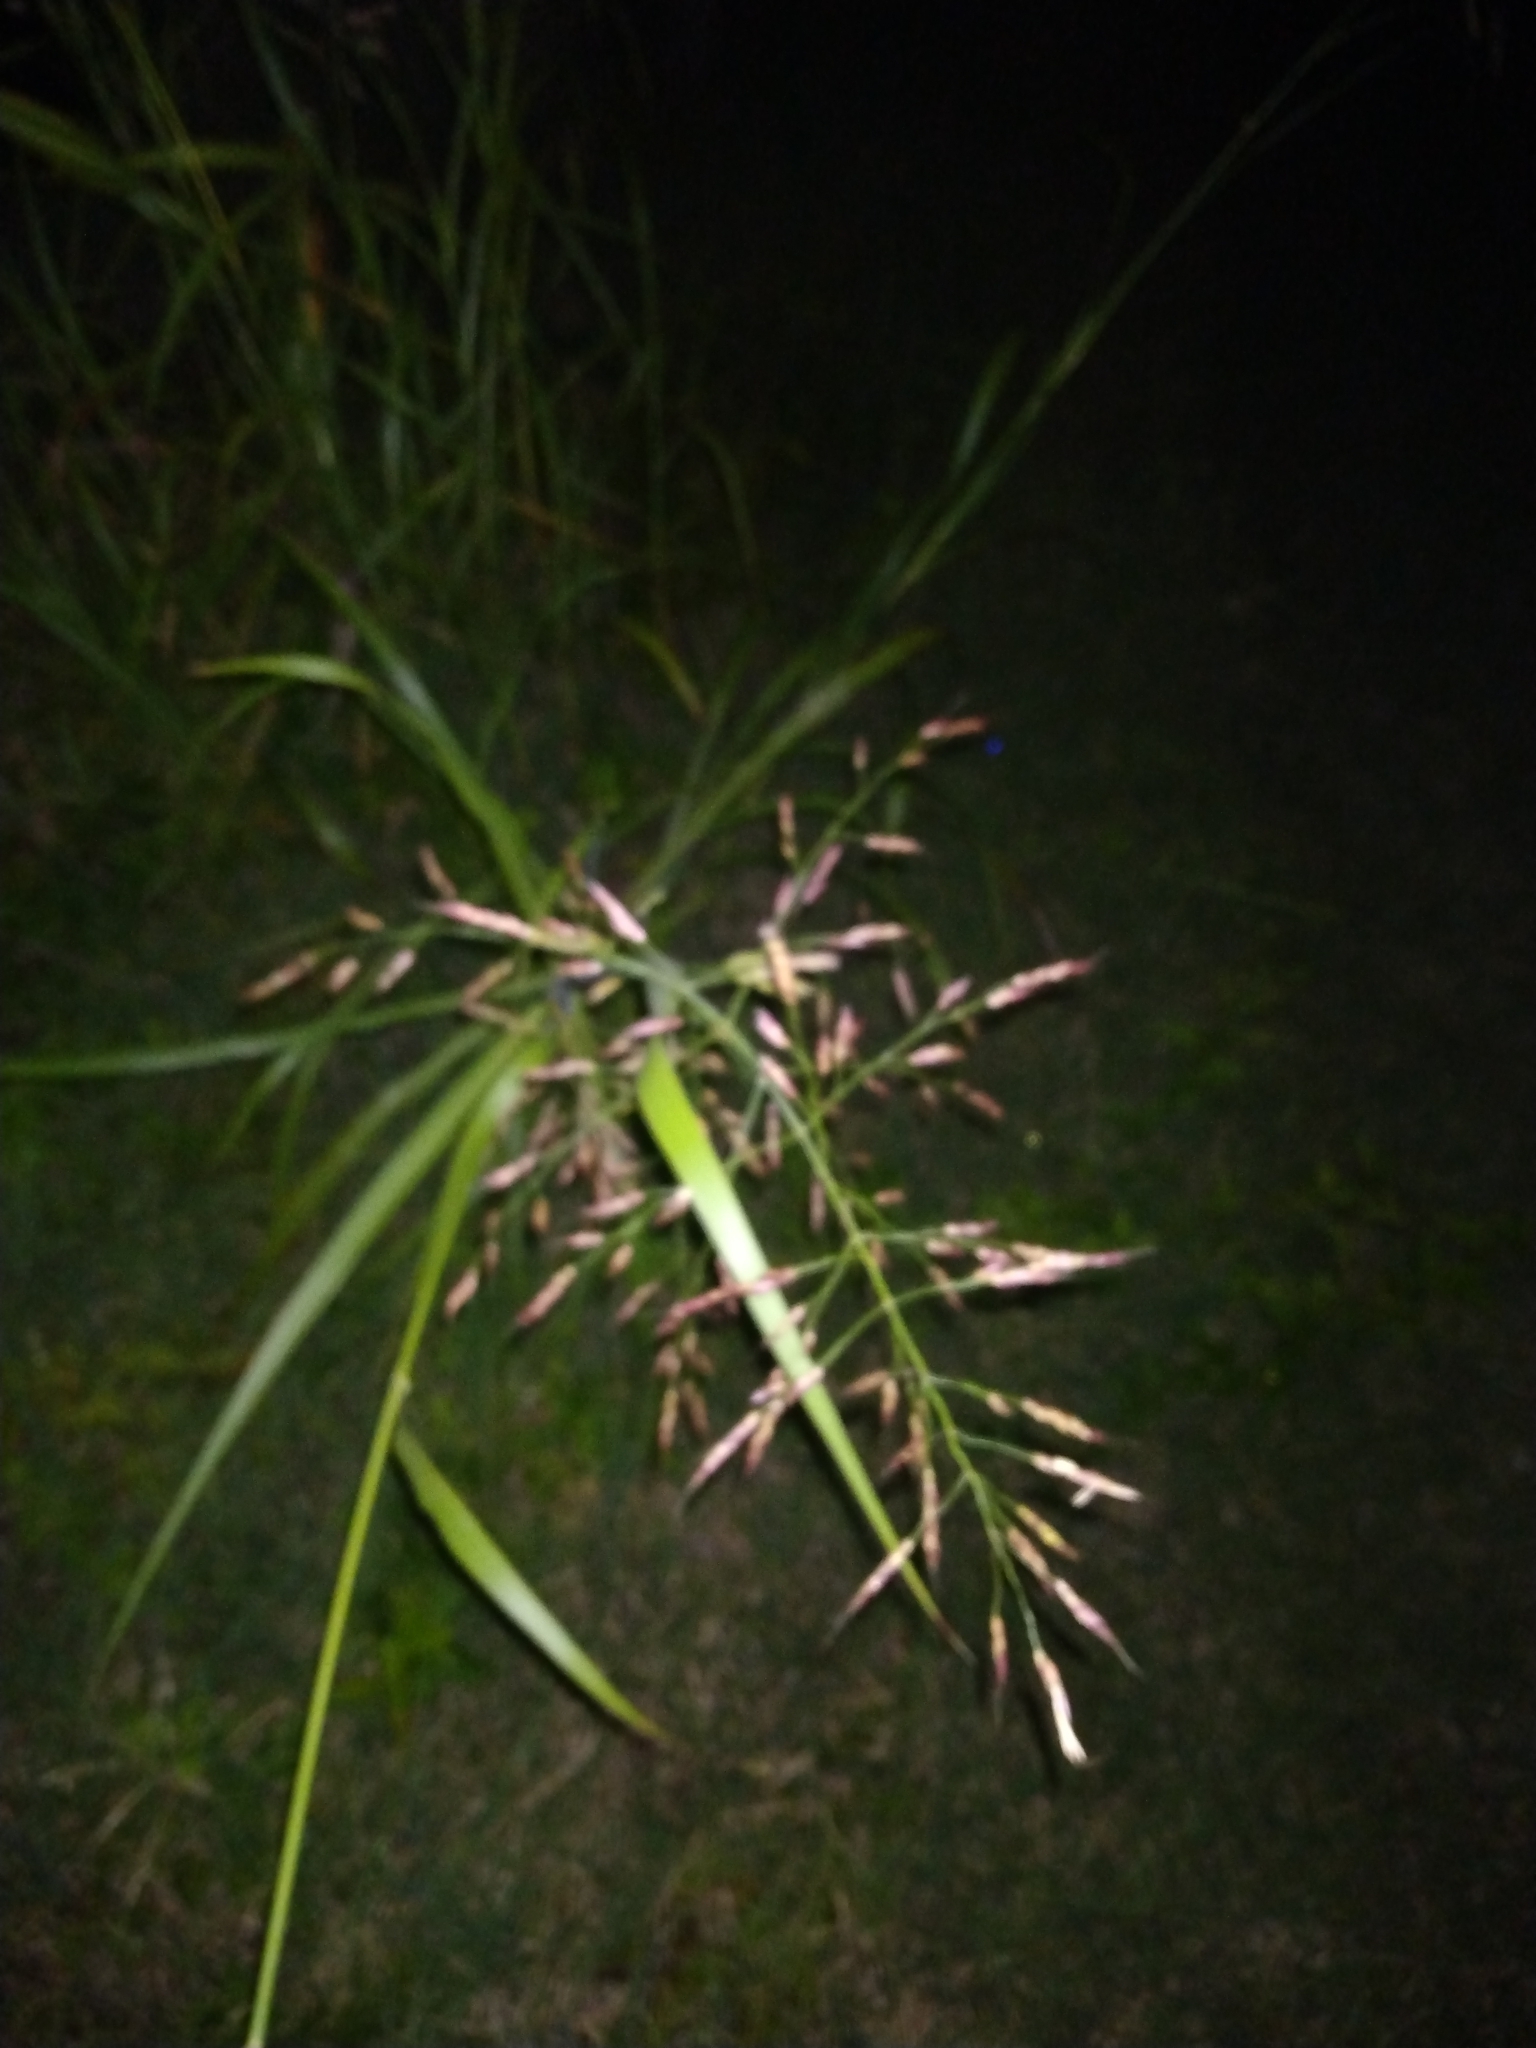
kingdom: Plantae
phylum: Tracheophyta
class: Liliopsida
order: Poales
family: Poaceae
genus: Sorghum
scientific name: Sorghum halepense
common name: Johnson-grass
